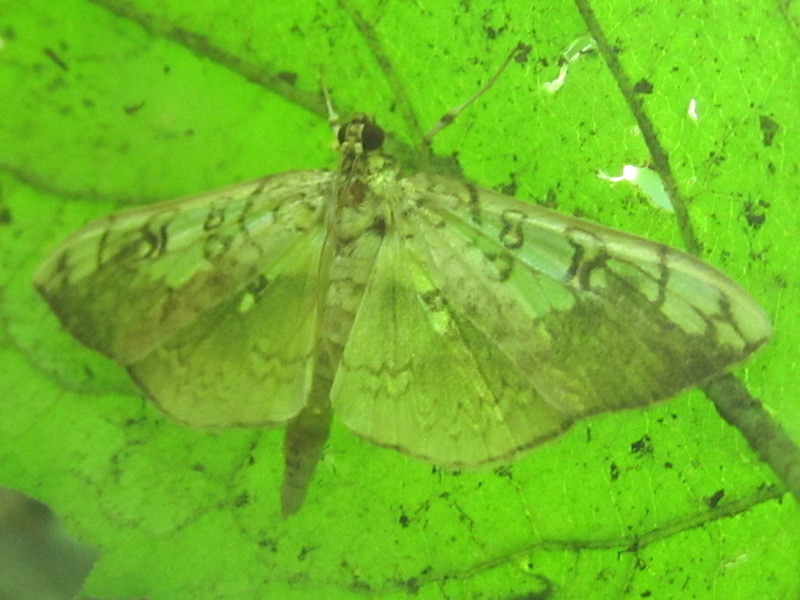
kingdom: Animalia
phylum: Arthropoda
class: Insecta
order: Lepidoptera
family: Crambidae
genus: Pantographa
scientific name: Pantographa limata
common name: Basswood leafroller moth
